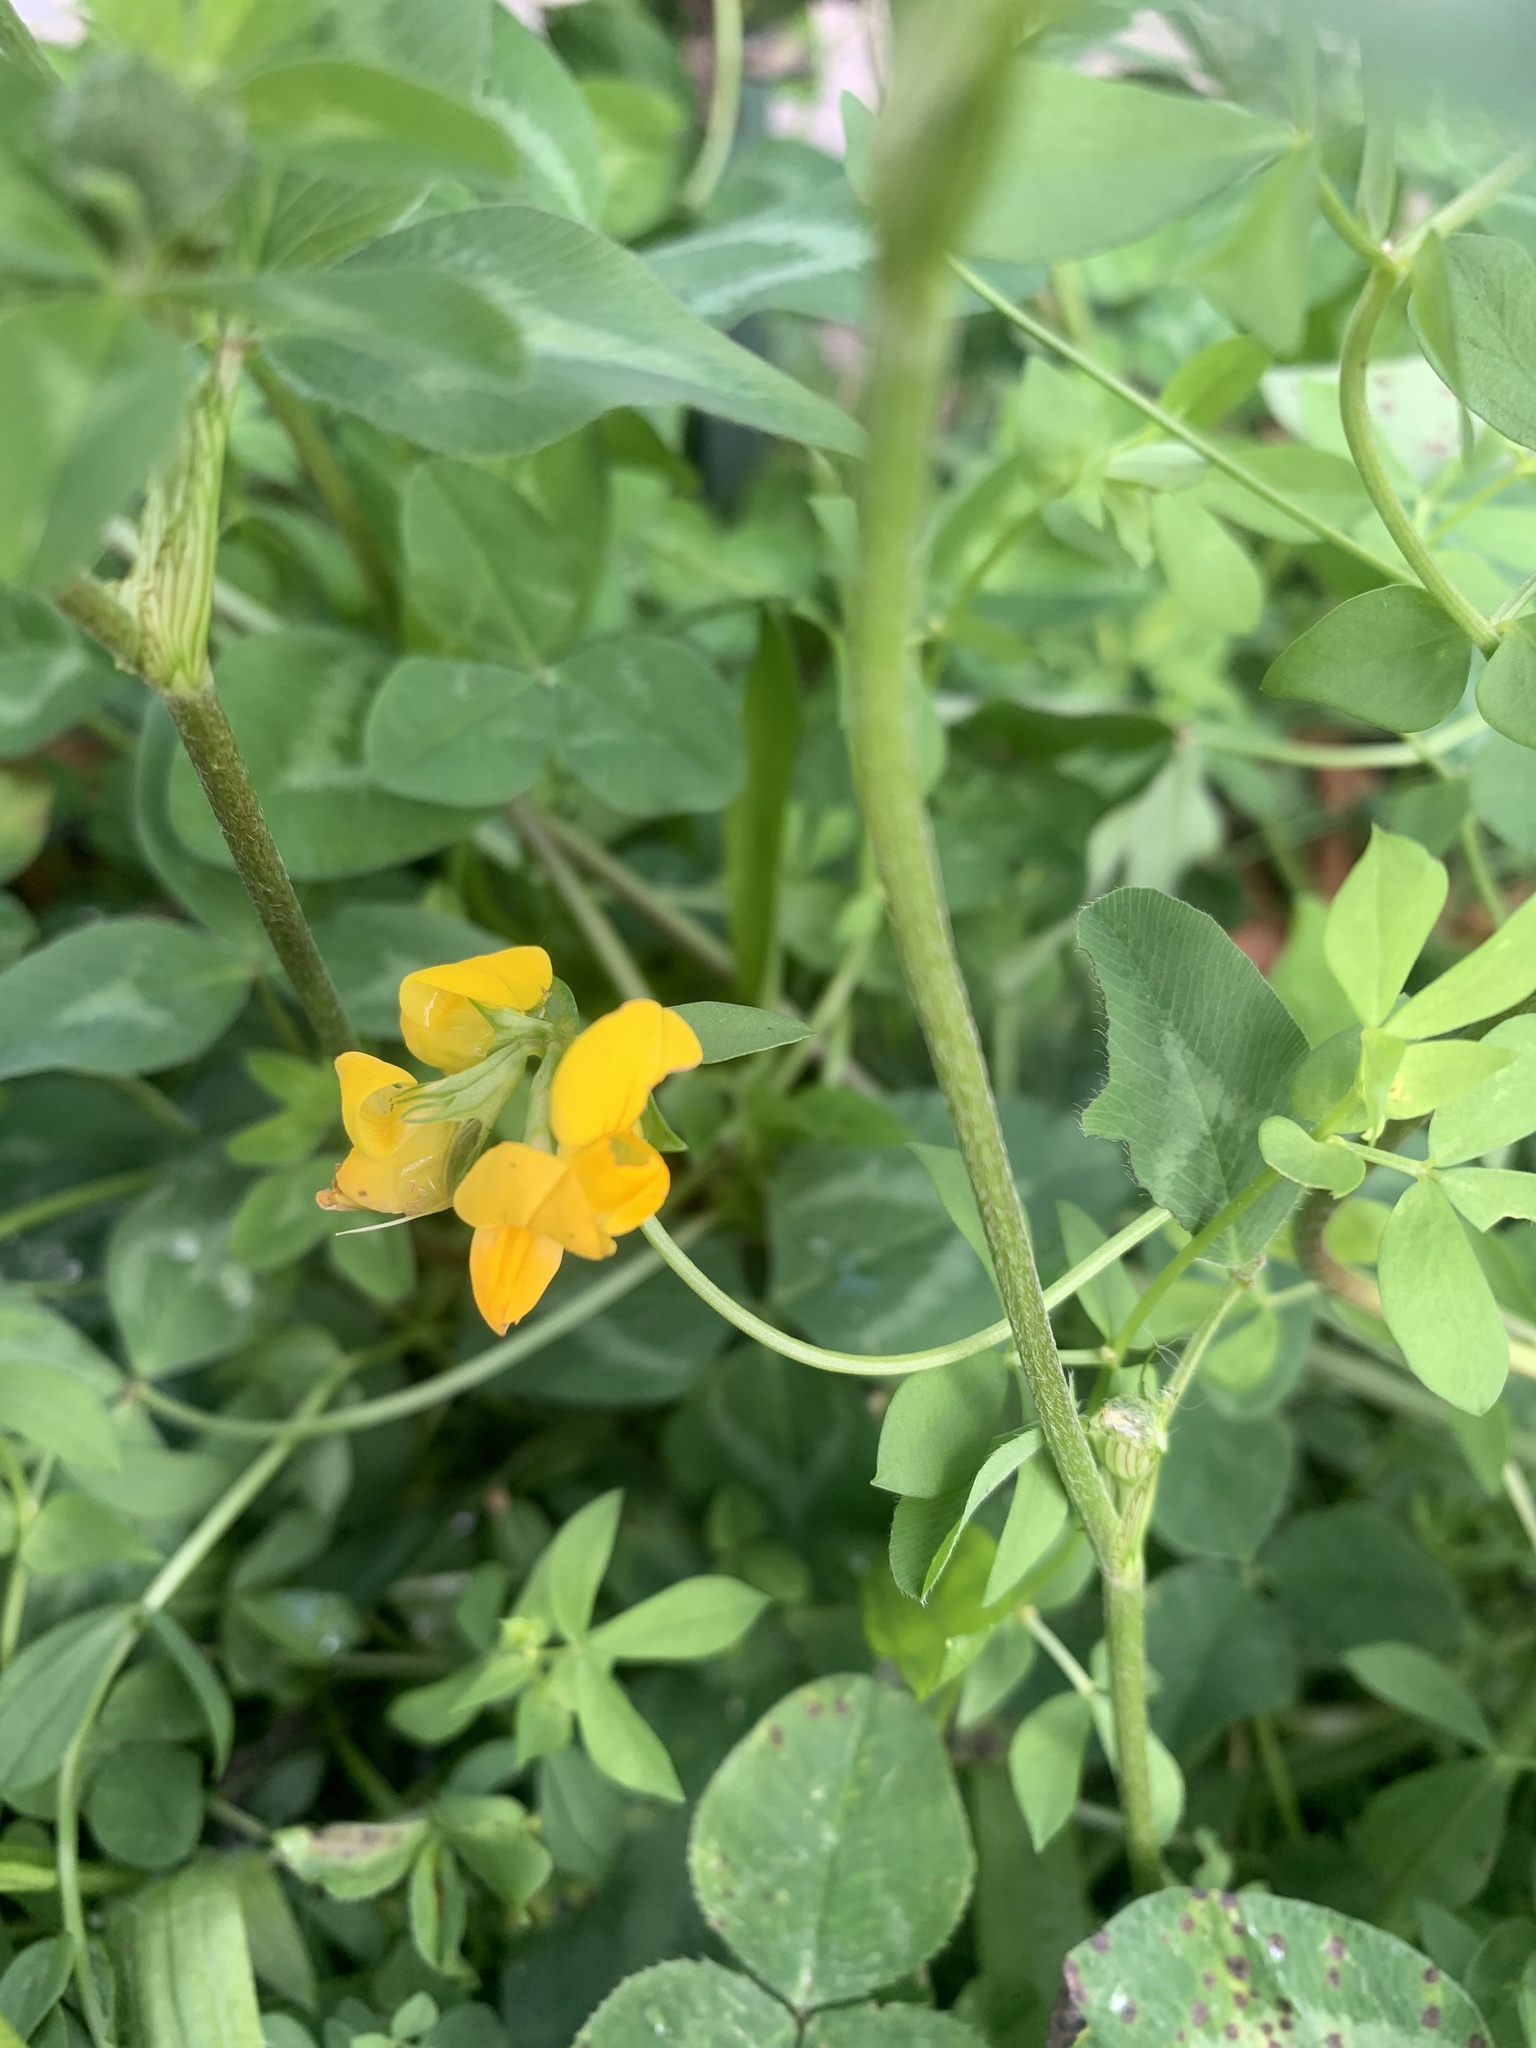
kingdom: Plantae
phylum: Tracheophyta
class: Magnoliopsida
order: Fabales
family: Fabaceae
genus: Lotus
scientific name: Lotus corniculatus
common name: Common bird's-foot-trefoil
